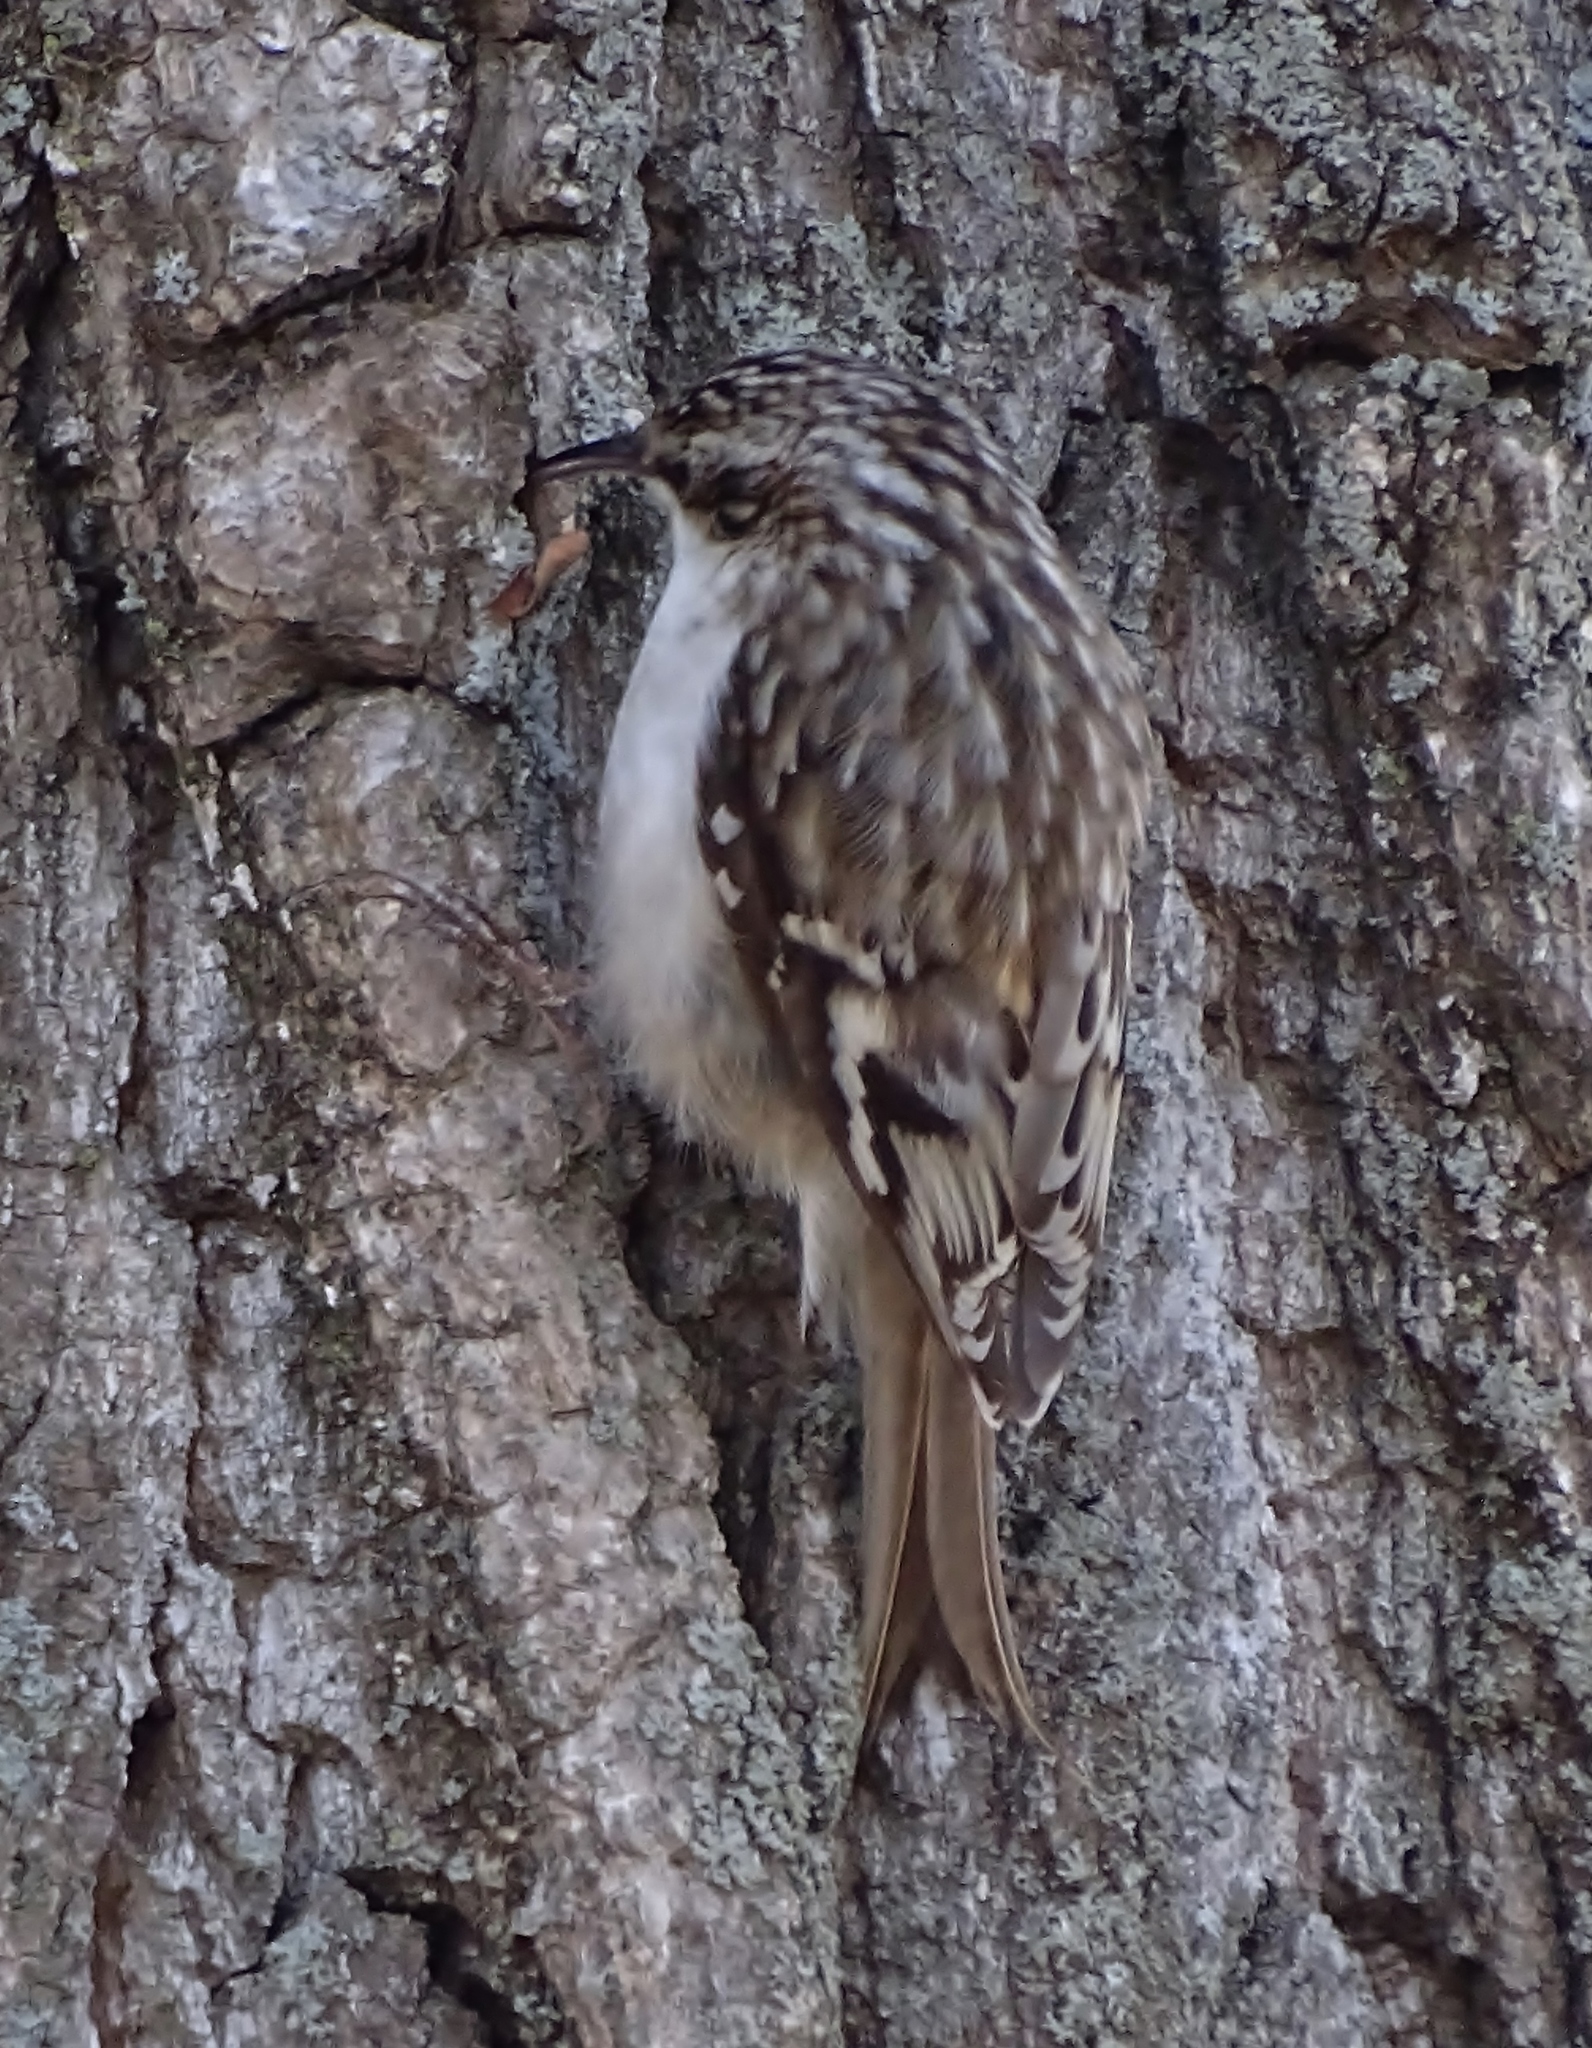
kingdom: Animalia
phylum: Chordata
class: Aves
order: Passeriformes
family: Certhiidae
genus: Certhia
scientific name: Certhia americana
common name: Brown creeper
